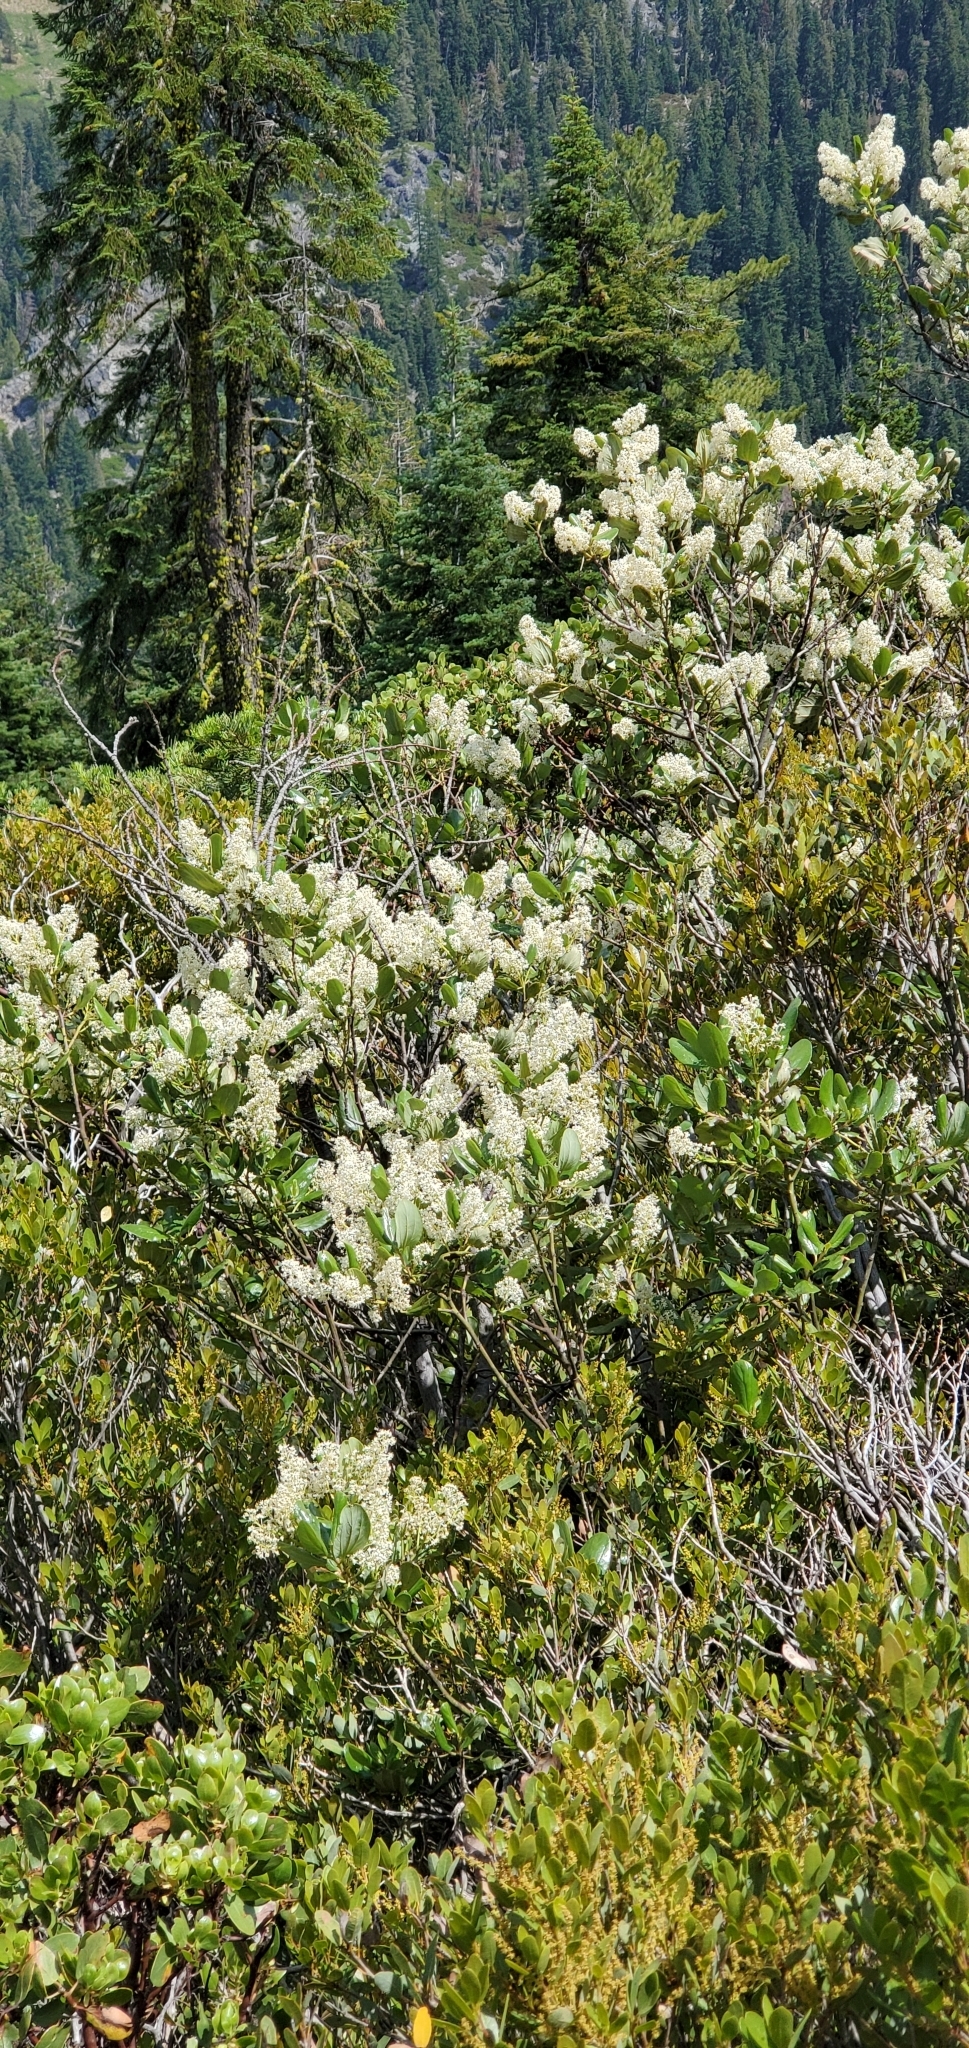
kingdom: Plantae
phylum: Tracheophyta
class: Magnoliopsida
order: Rosales
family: Rhamnaceae
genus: Ceanothus
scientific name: Ceanothus velutinus
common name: Snowbrush
